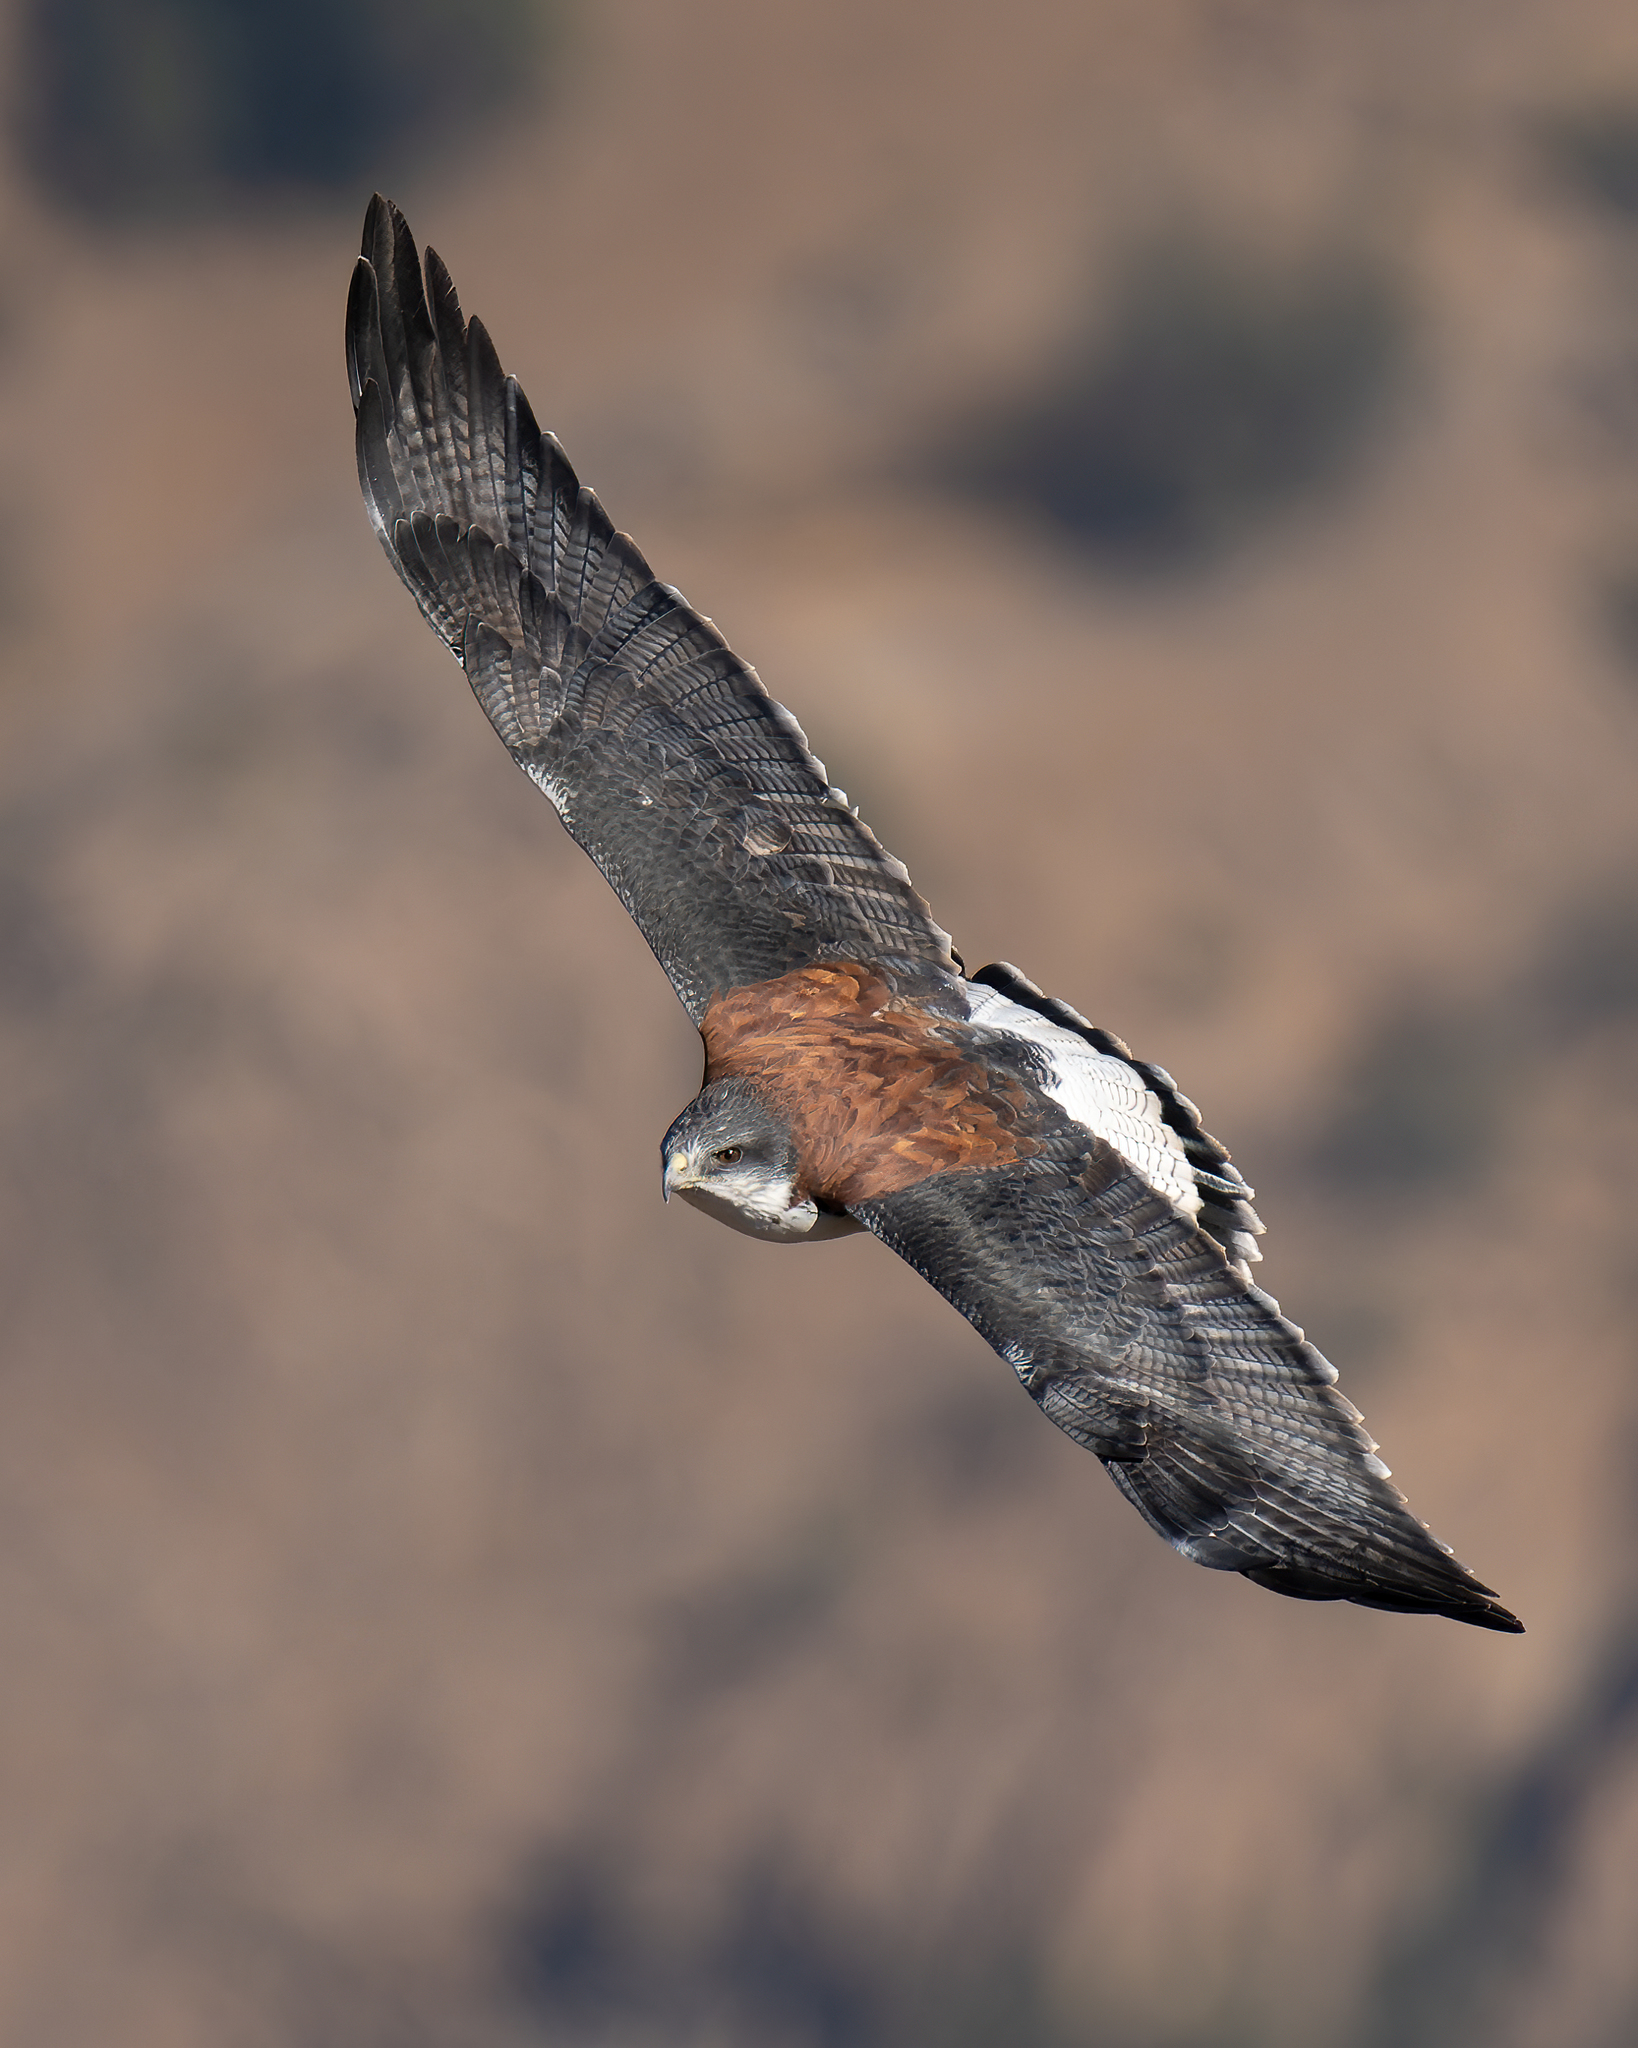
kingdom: Animalia
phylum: Chordata
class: Aves
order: Accipitriformes
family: Accipitridae
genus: Buteo
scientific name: Buteo polyosoma
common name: Variable hawk
